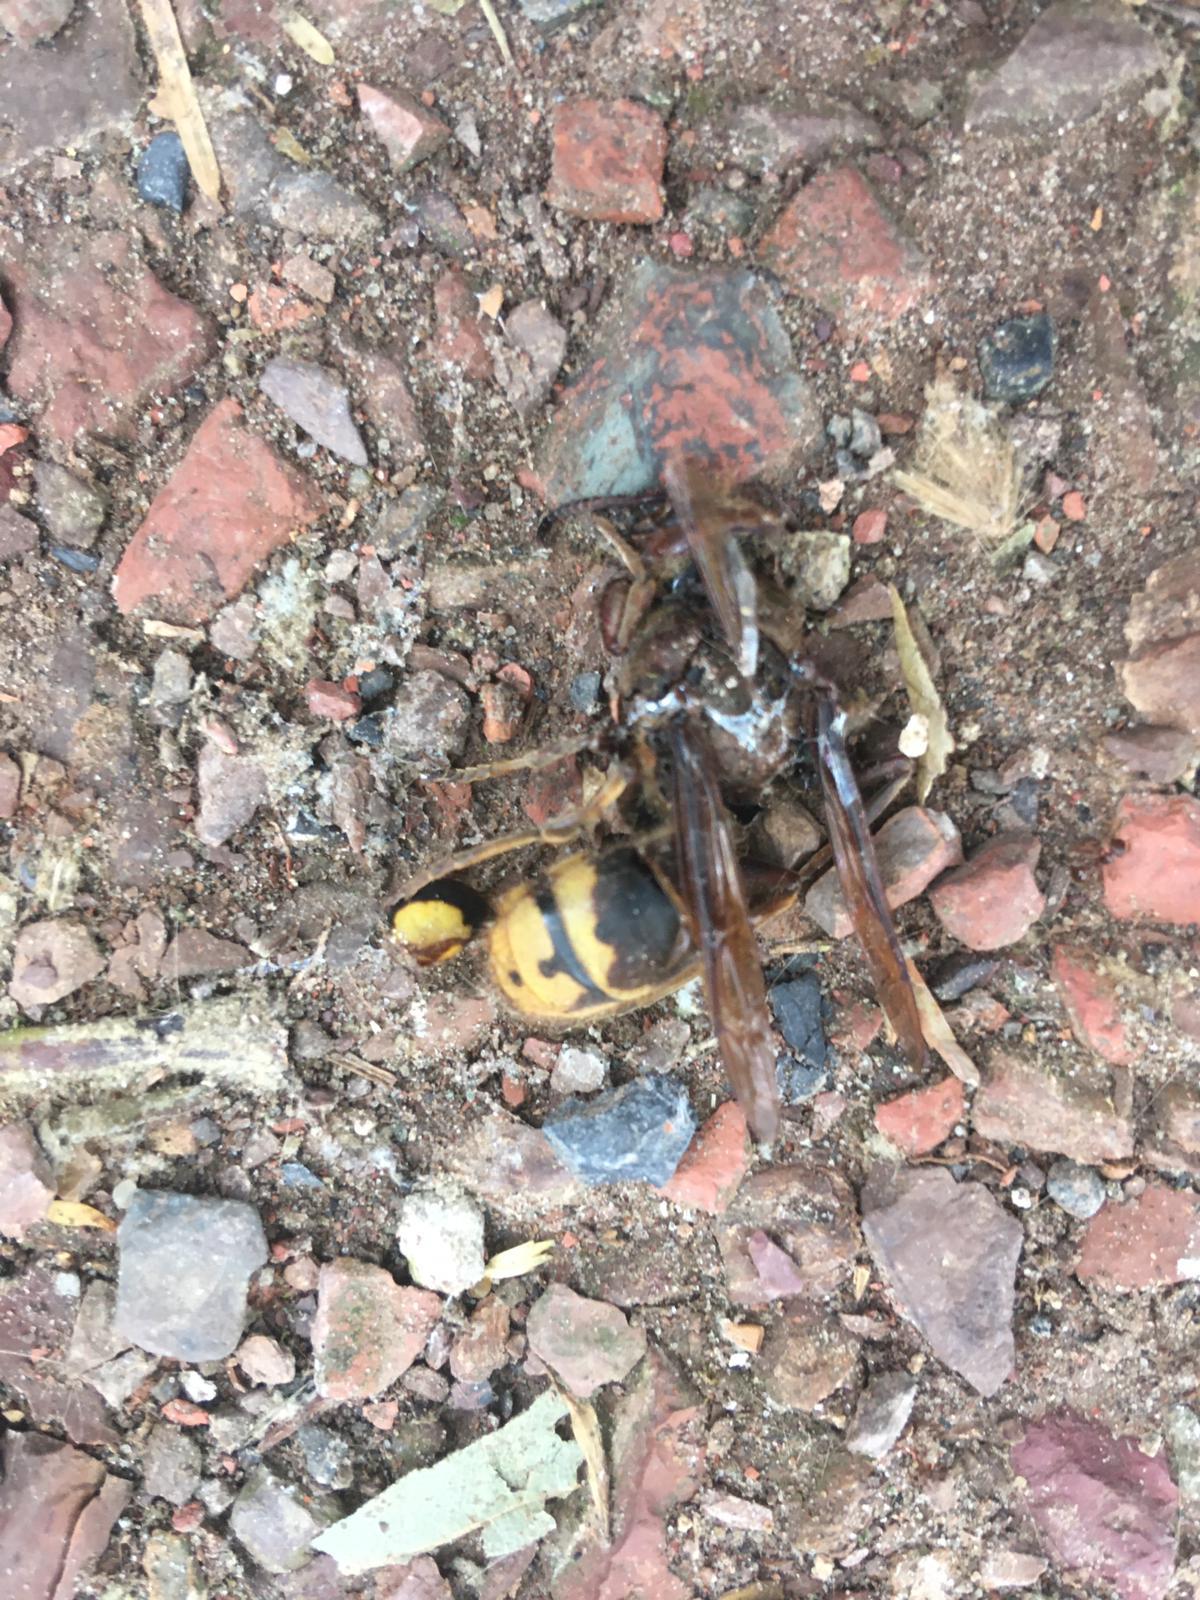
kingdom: Animalia
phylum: Arthropoda
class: Insecta
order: Hymenoptera
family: Vespidae
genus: Vespa
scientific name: Vespa crabro
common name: Hornet
